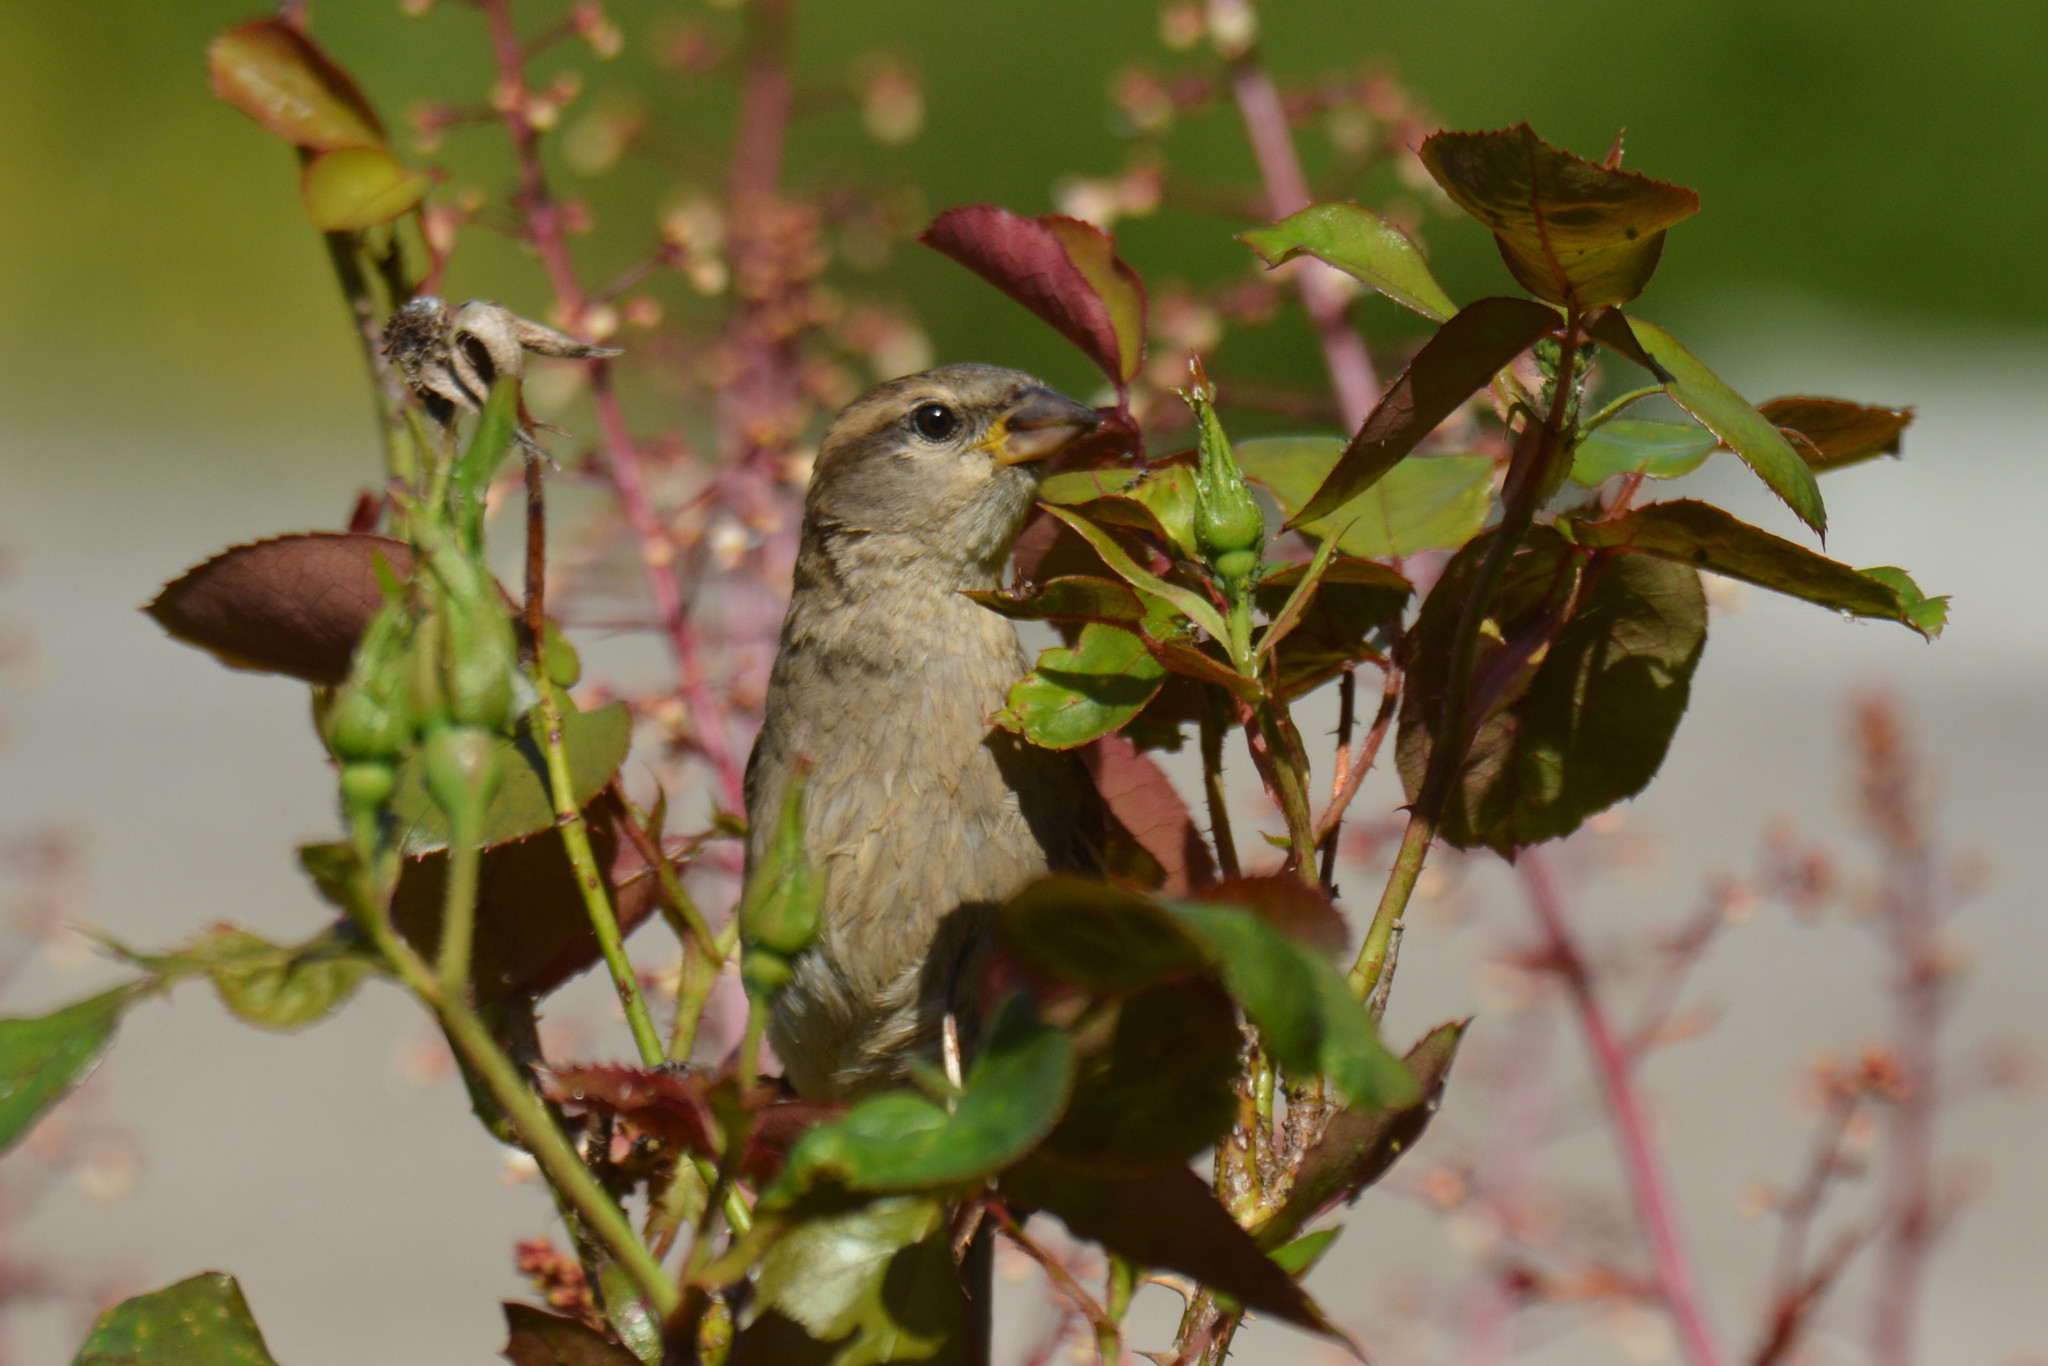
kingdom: Animalia
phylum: Chordata
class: Aves
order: Passeriformes
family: Passeridae
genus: Passer
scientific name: Passer domesticus
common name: House sparrow
